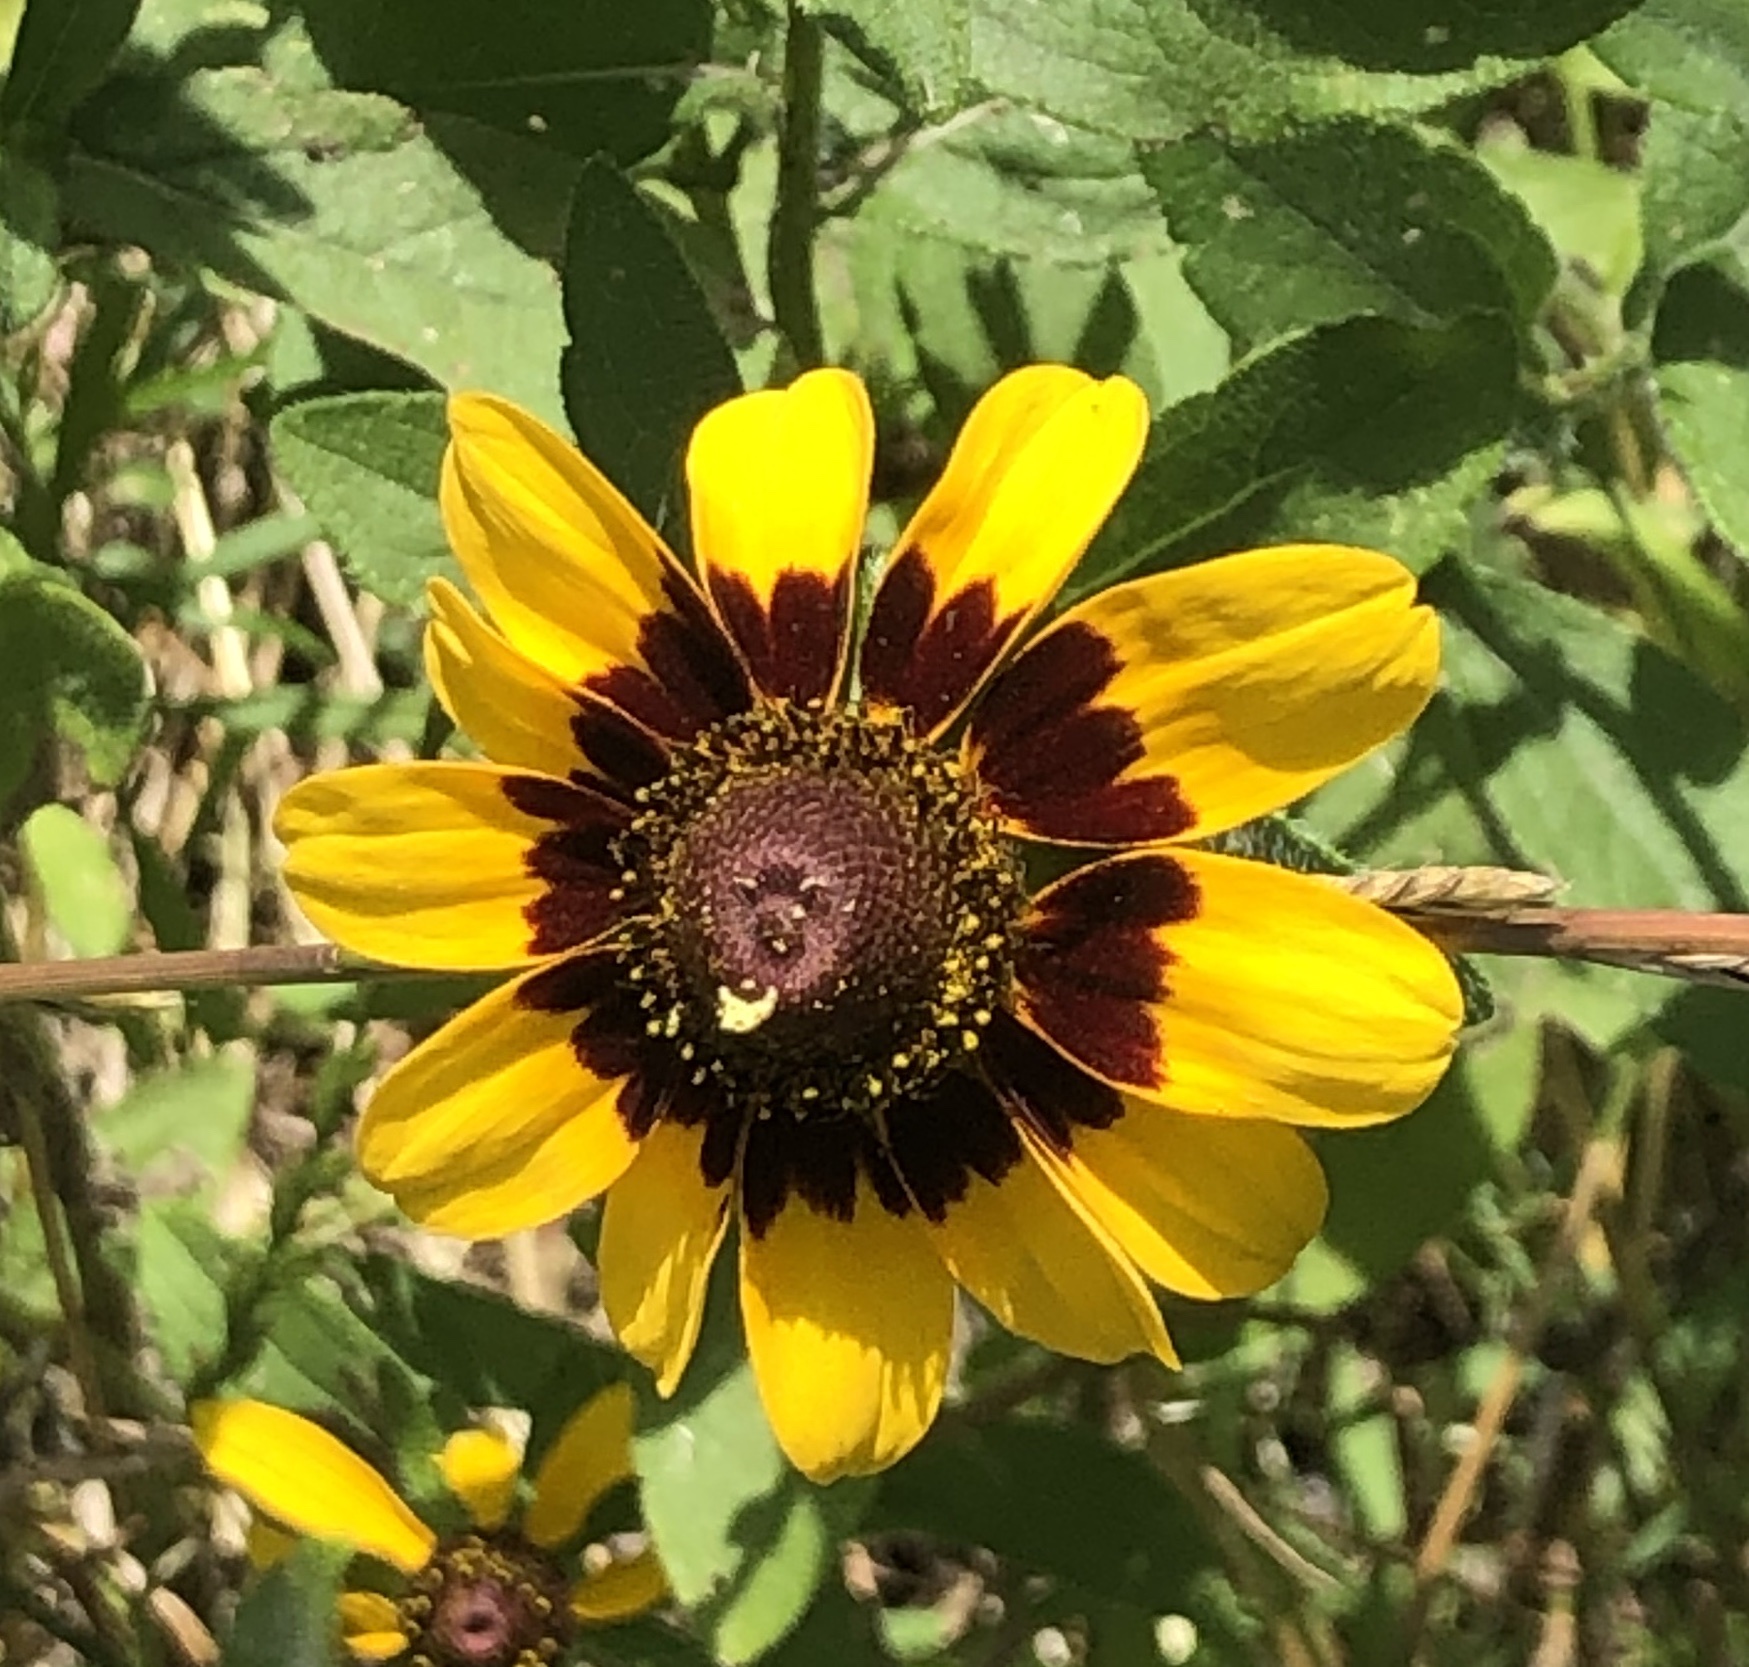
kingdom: Plantae
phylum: Tracheophyta
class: Magnoliopsida
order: Asterales
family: Asteraceae
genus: Rudbeckia
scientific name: Rudbeckia hirta
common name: Black-eyed-susan
